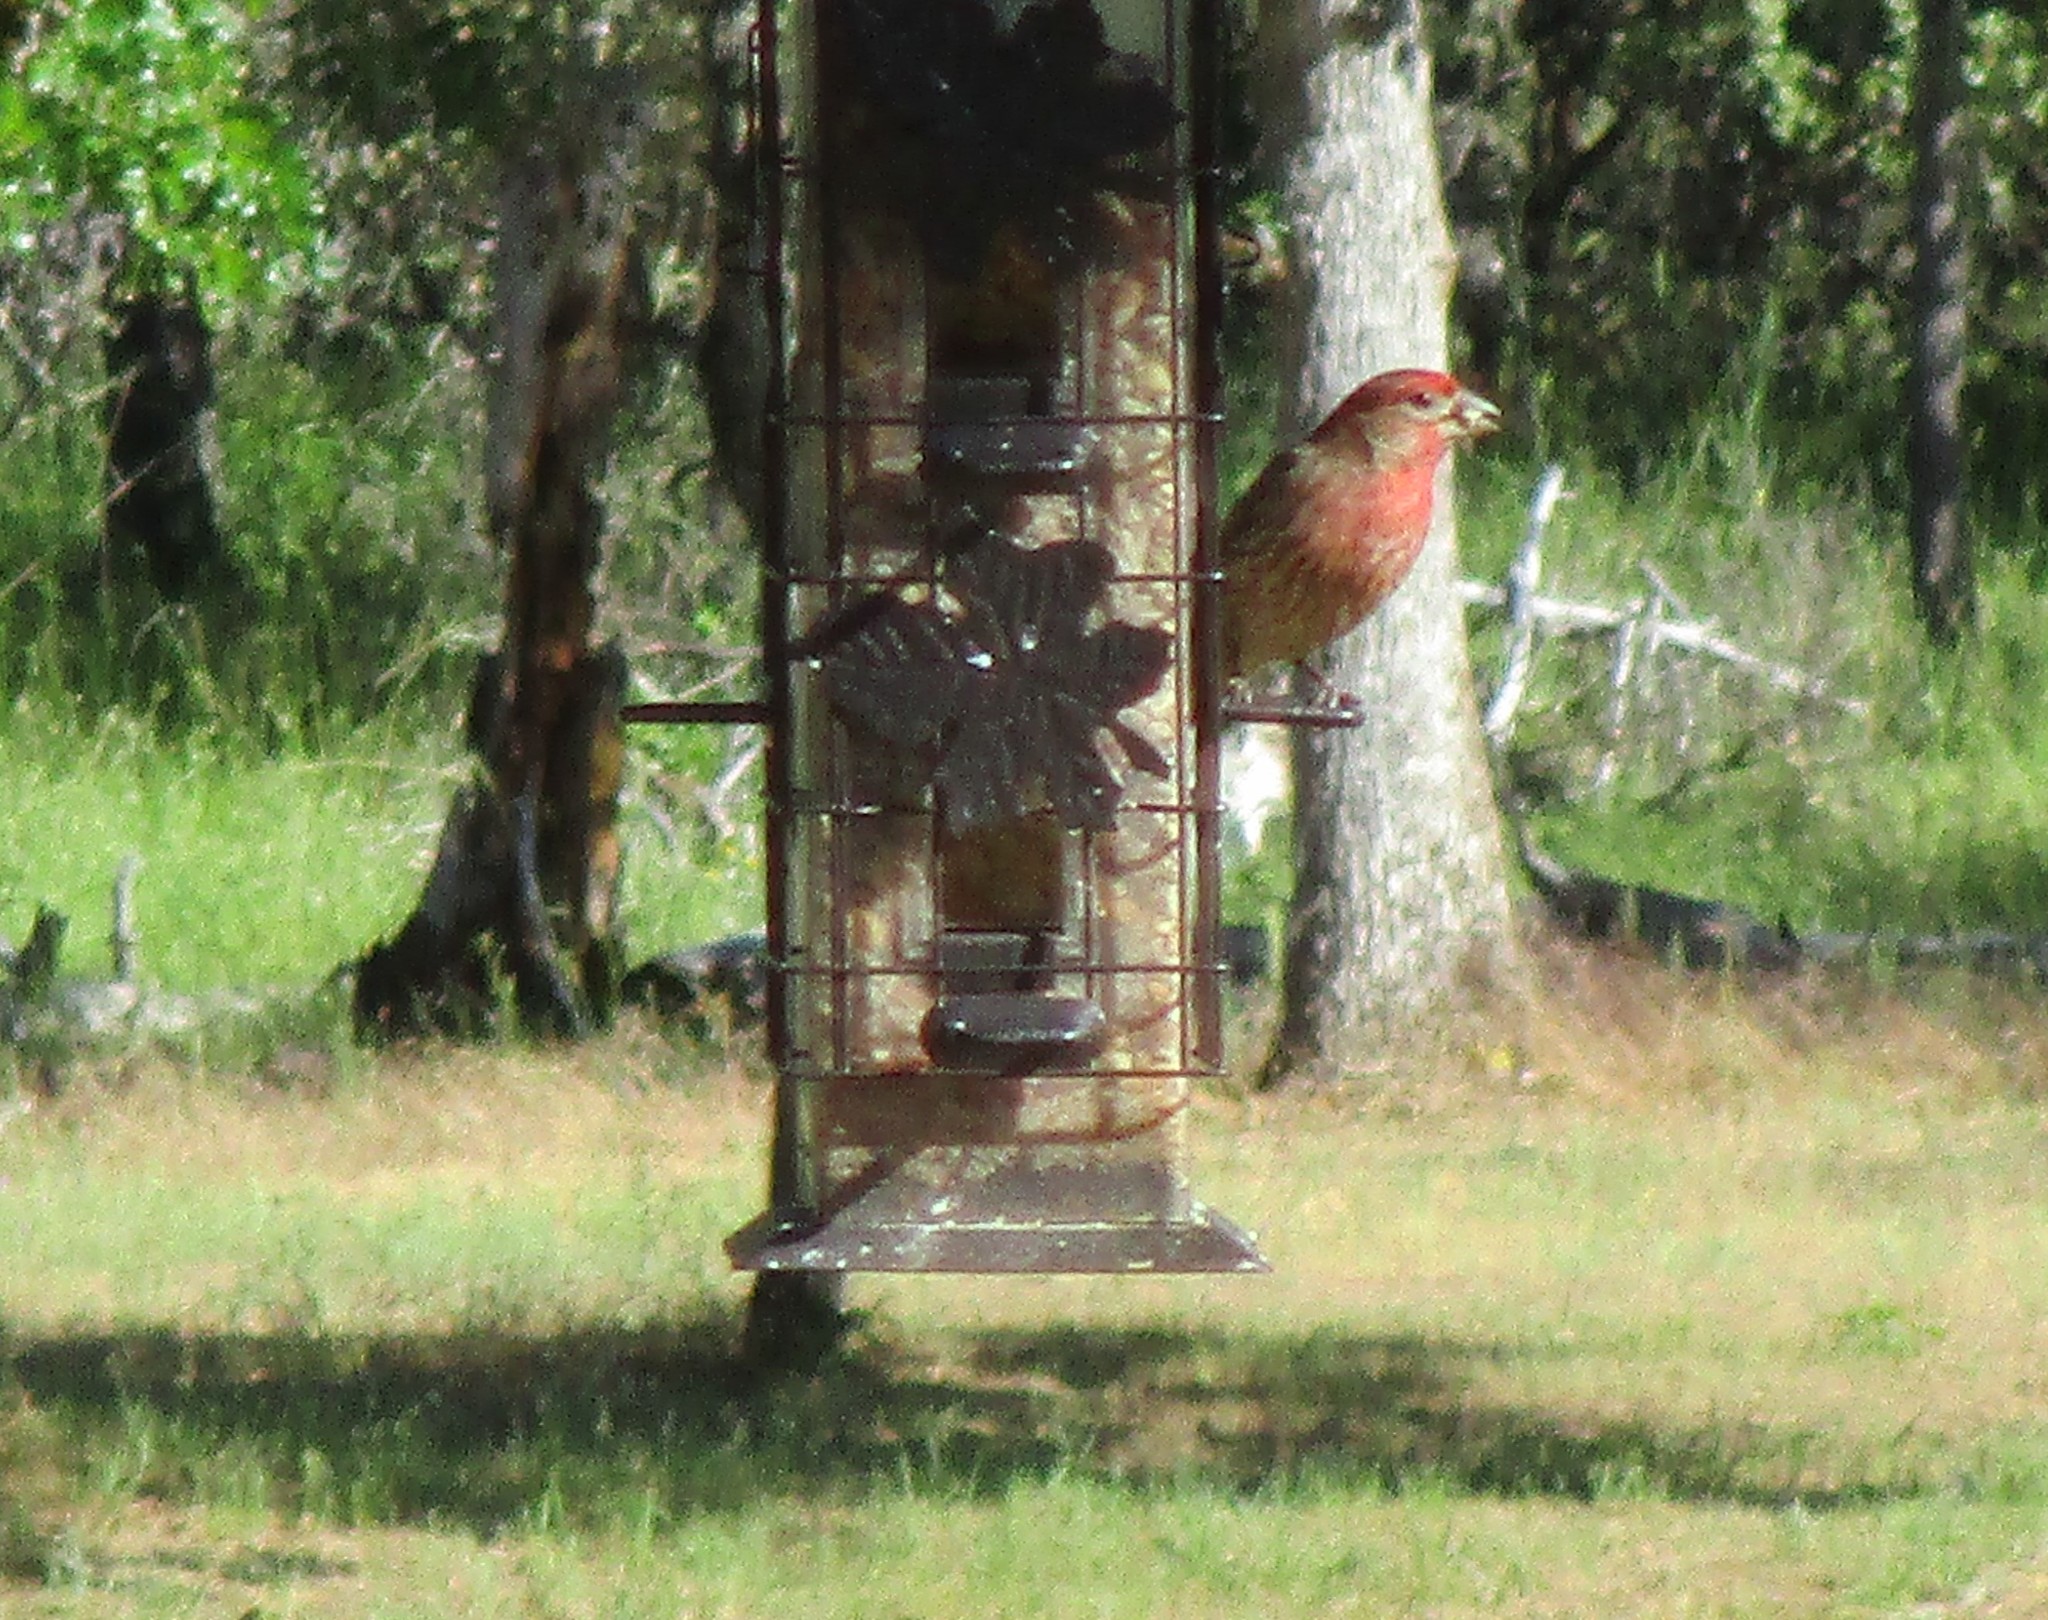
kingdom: Animalia
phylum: Chordata
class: Aves
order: Passeriformes
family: Fringillidae
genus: Haemorhous
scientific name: Haemorhous mexicanus
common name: House finch
